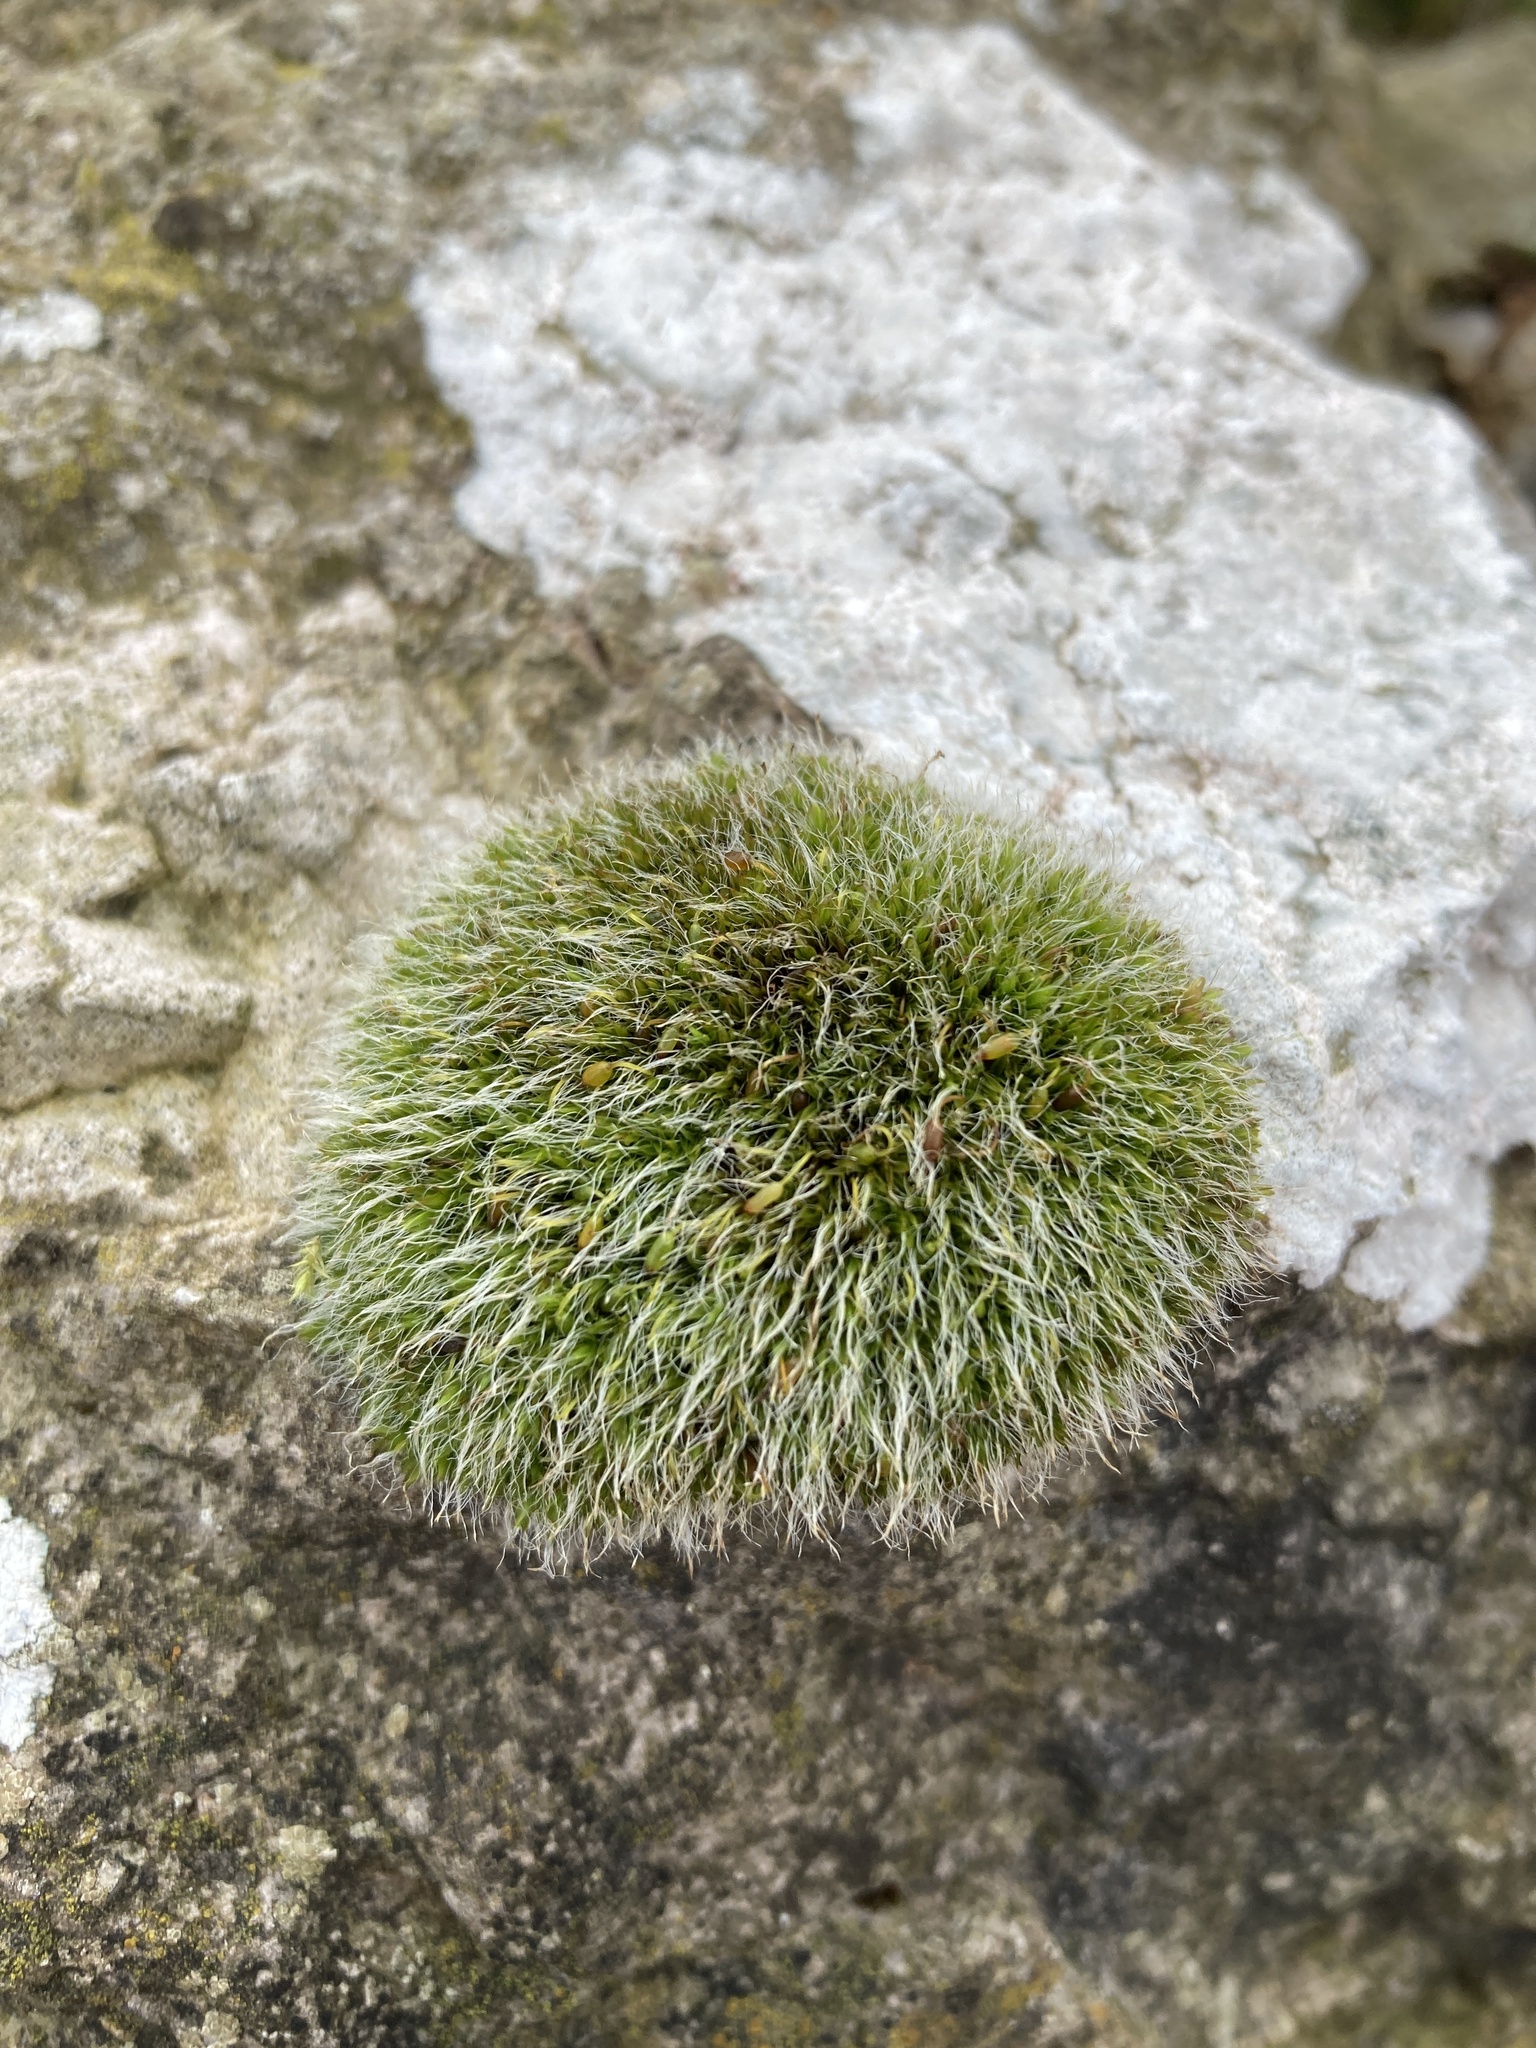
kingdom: Plantae
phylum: Bryophyta
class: Bryopsida
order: Grimmiales
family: Grimmiaceae
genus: Grimmia
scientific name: Grimmia pulvinata
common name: Grey-cushioned grimmia
